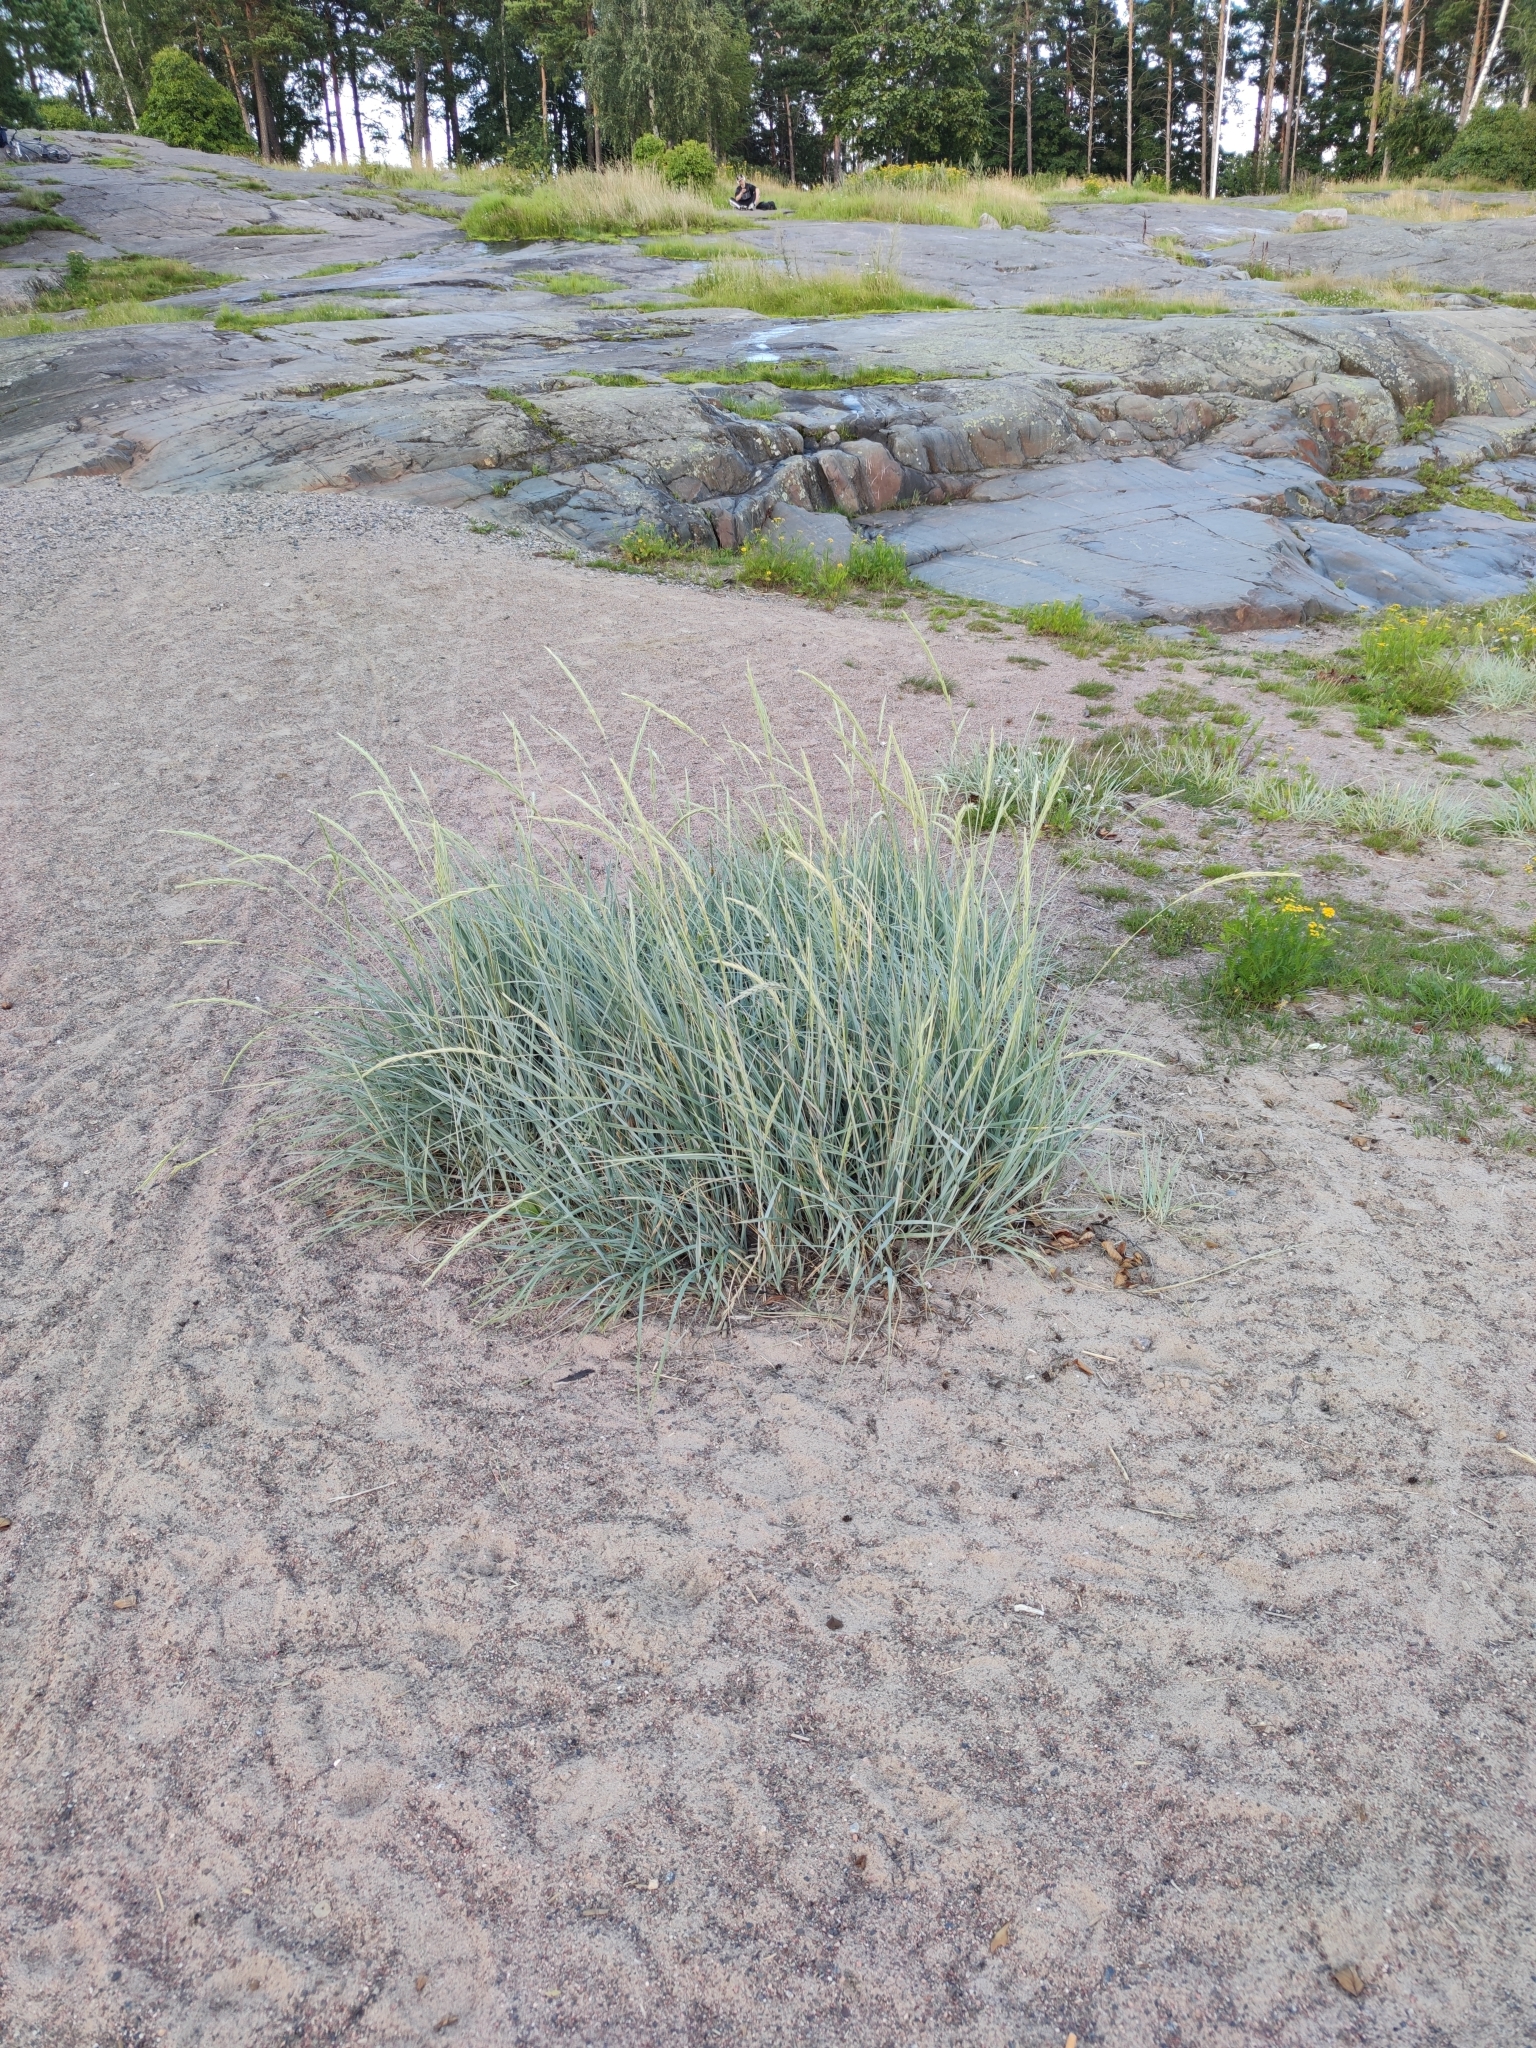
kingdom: Plantae
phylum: Tracheophyta
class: Liliopsida
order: Poales
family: Poaceae
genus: Leymus
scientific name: Leymus arenarius
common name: Lyme-grass
